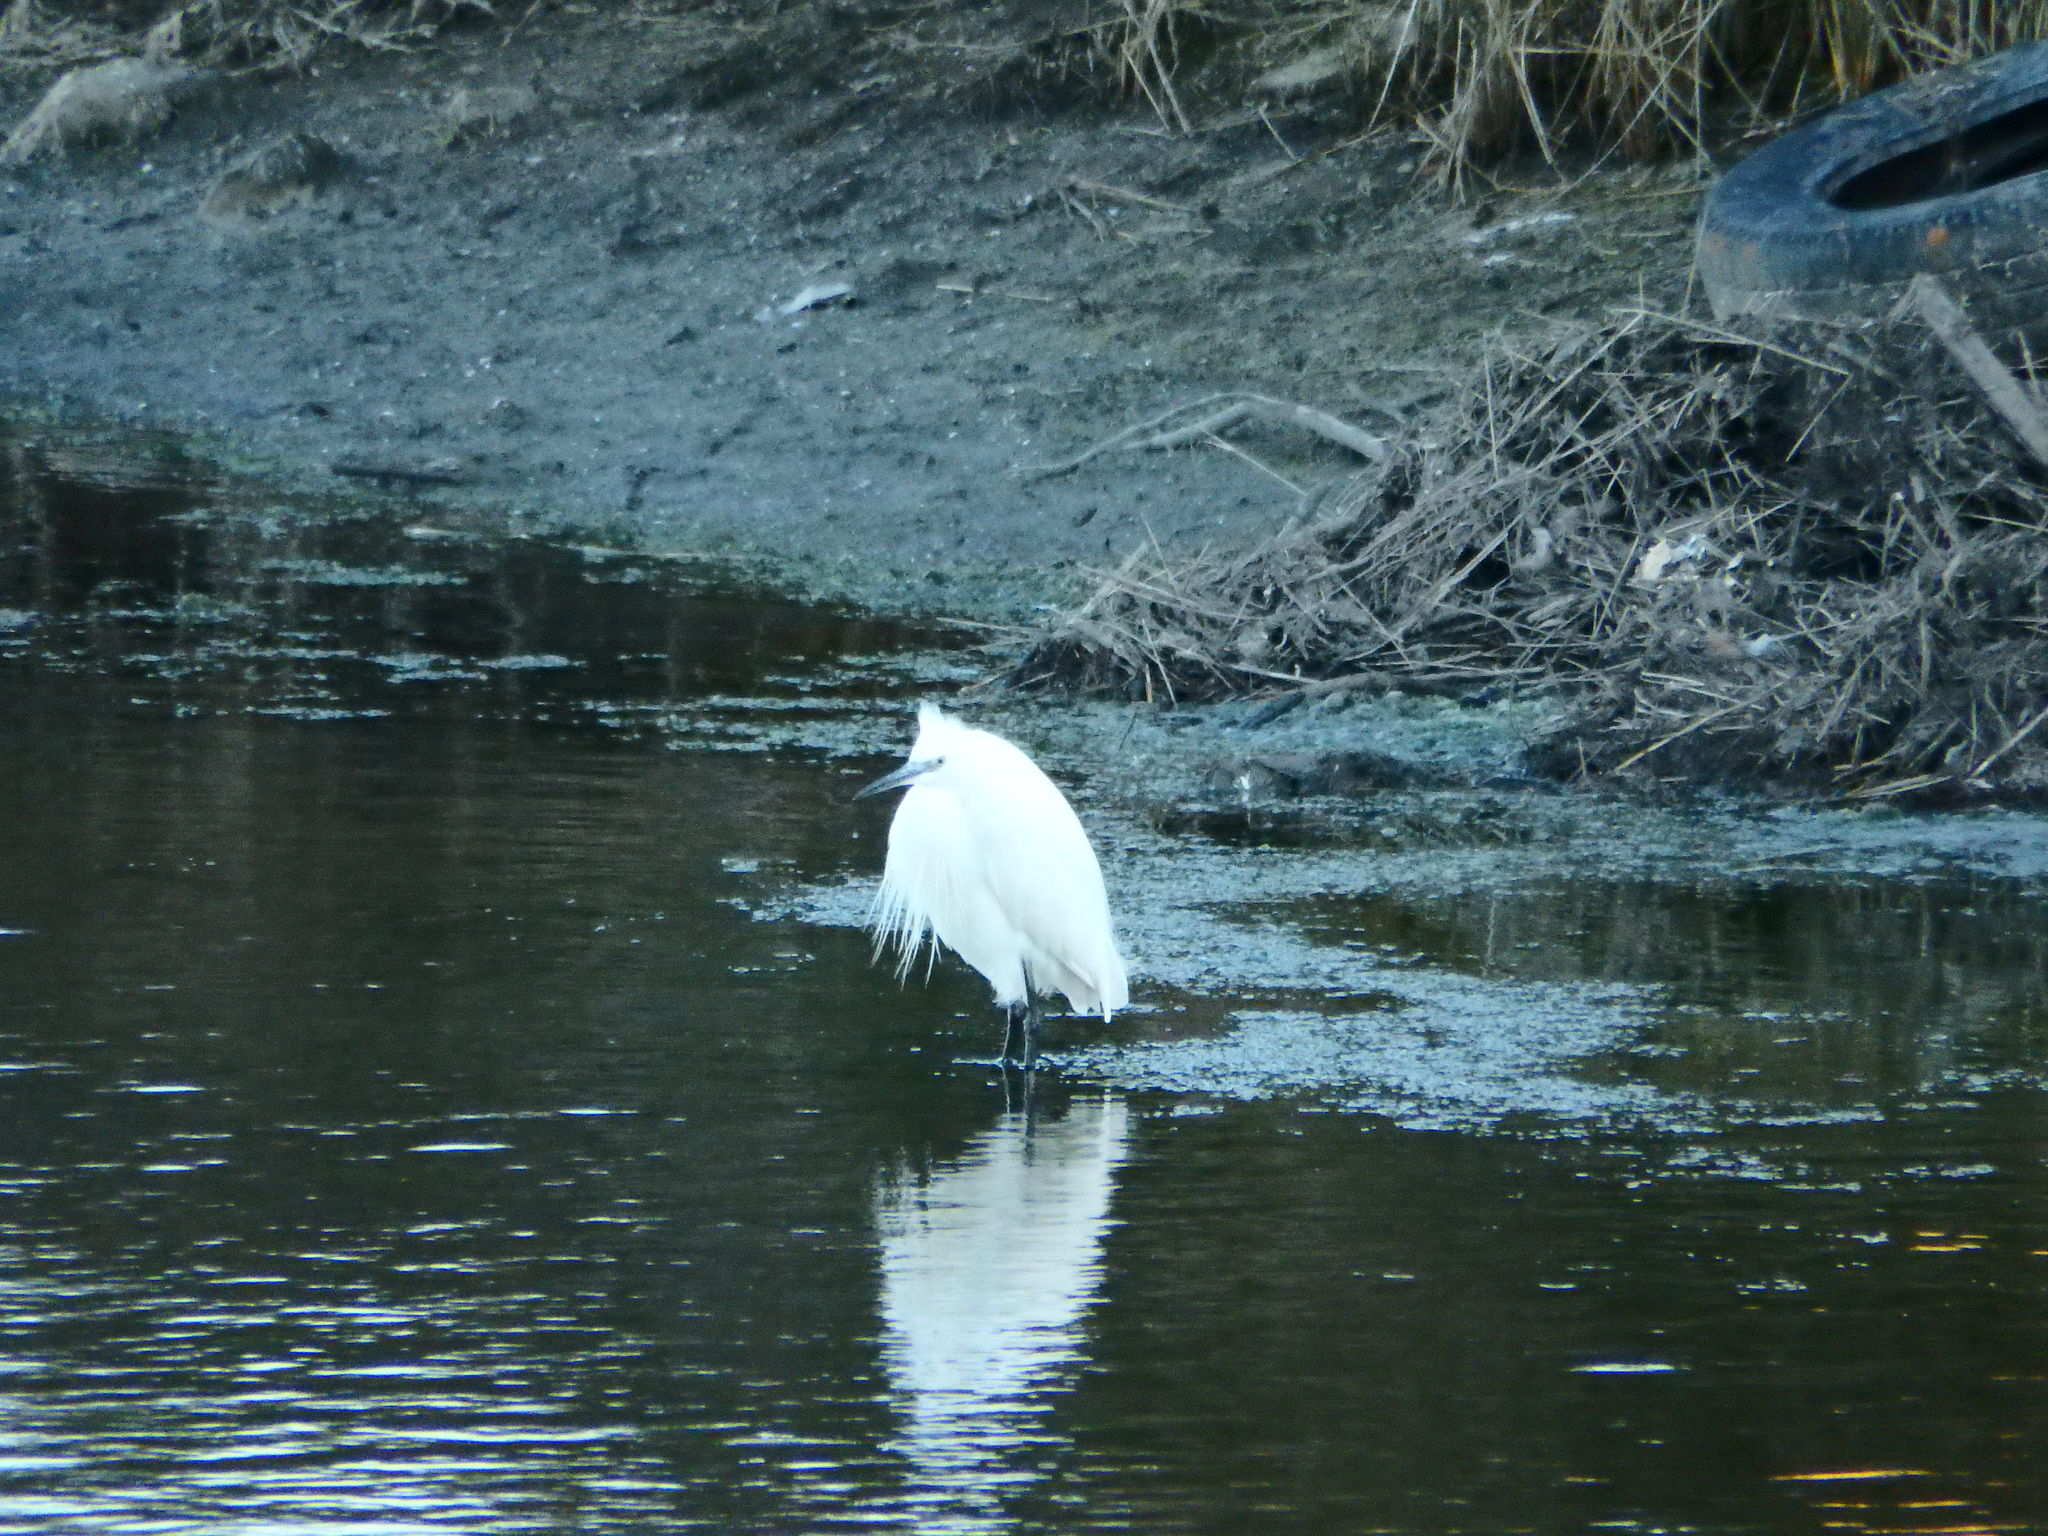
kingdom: Animalia
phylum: Chordata
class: Aves
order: Pelecaniformes
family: Ardeidae
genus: Egretta
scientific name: Egretta garzetta
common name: Little egret
